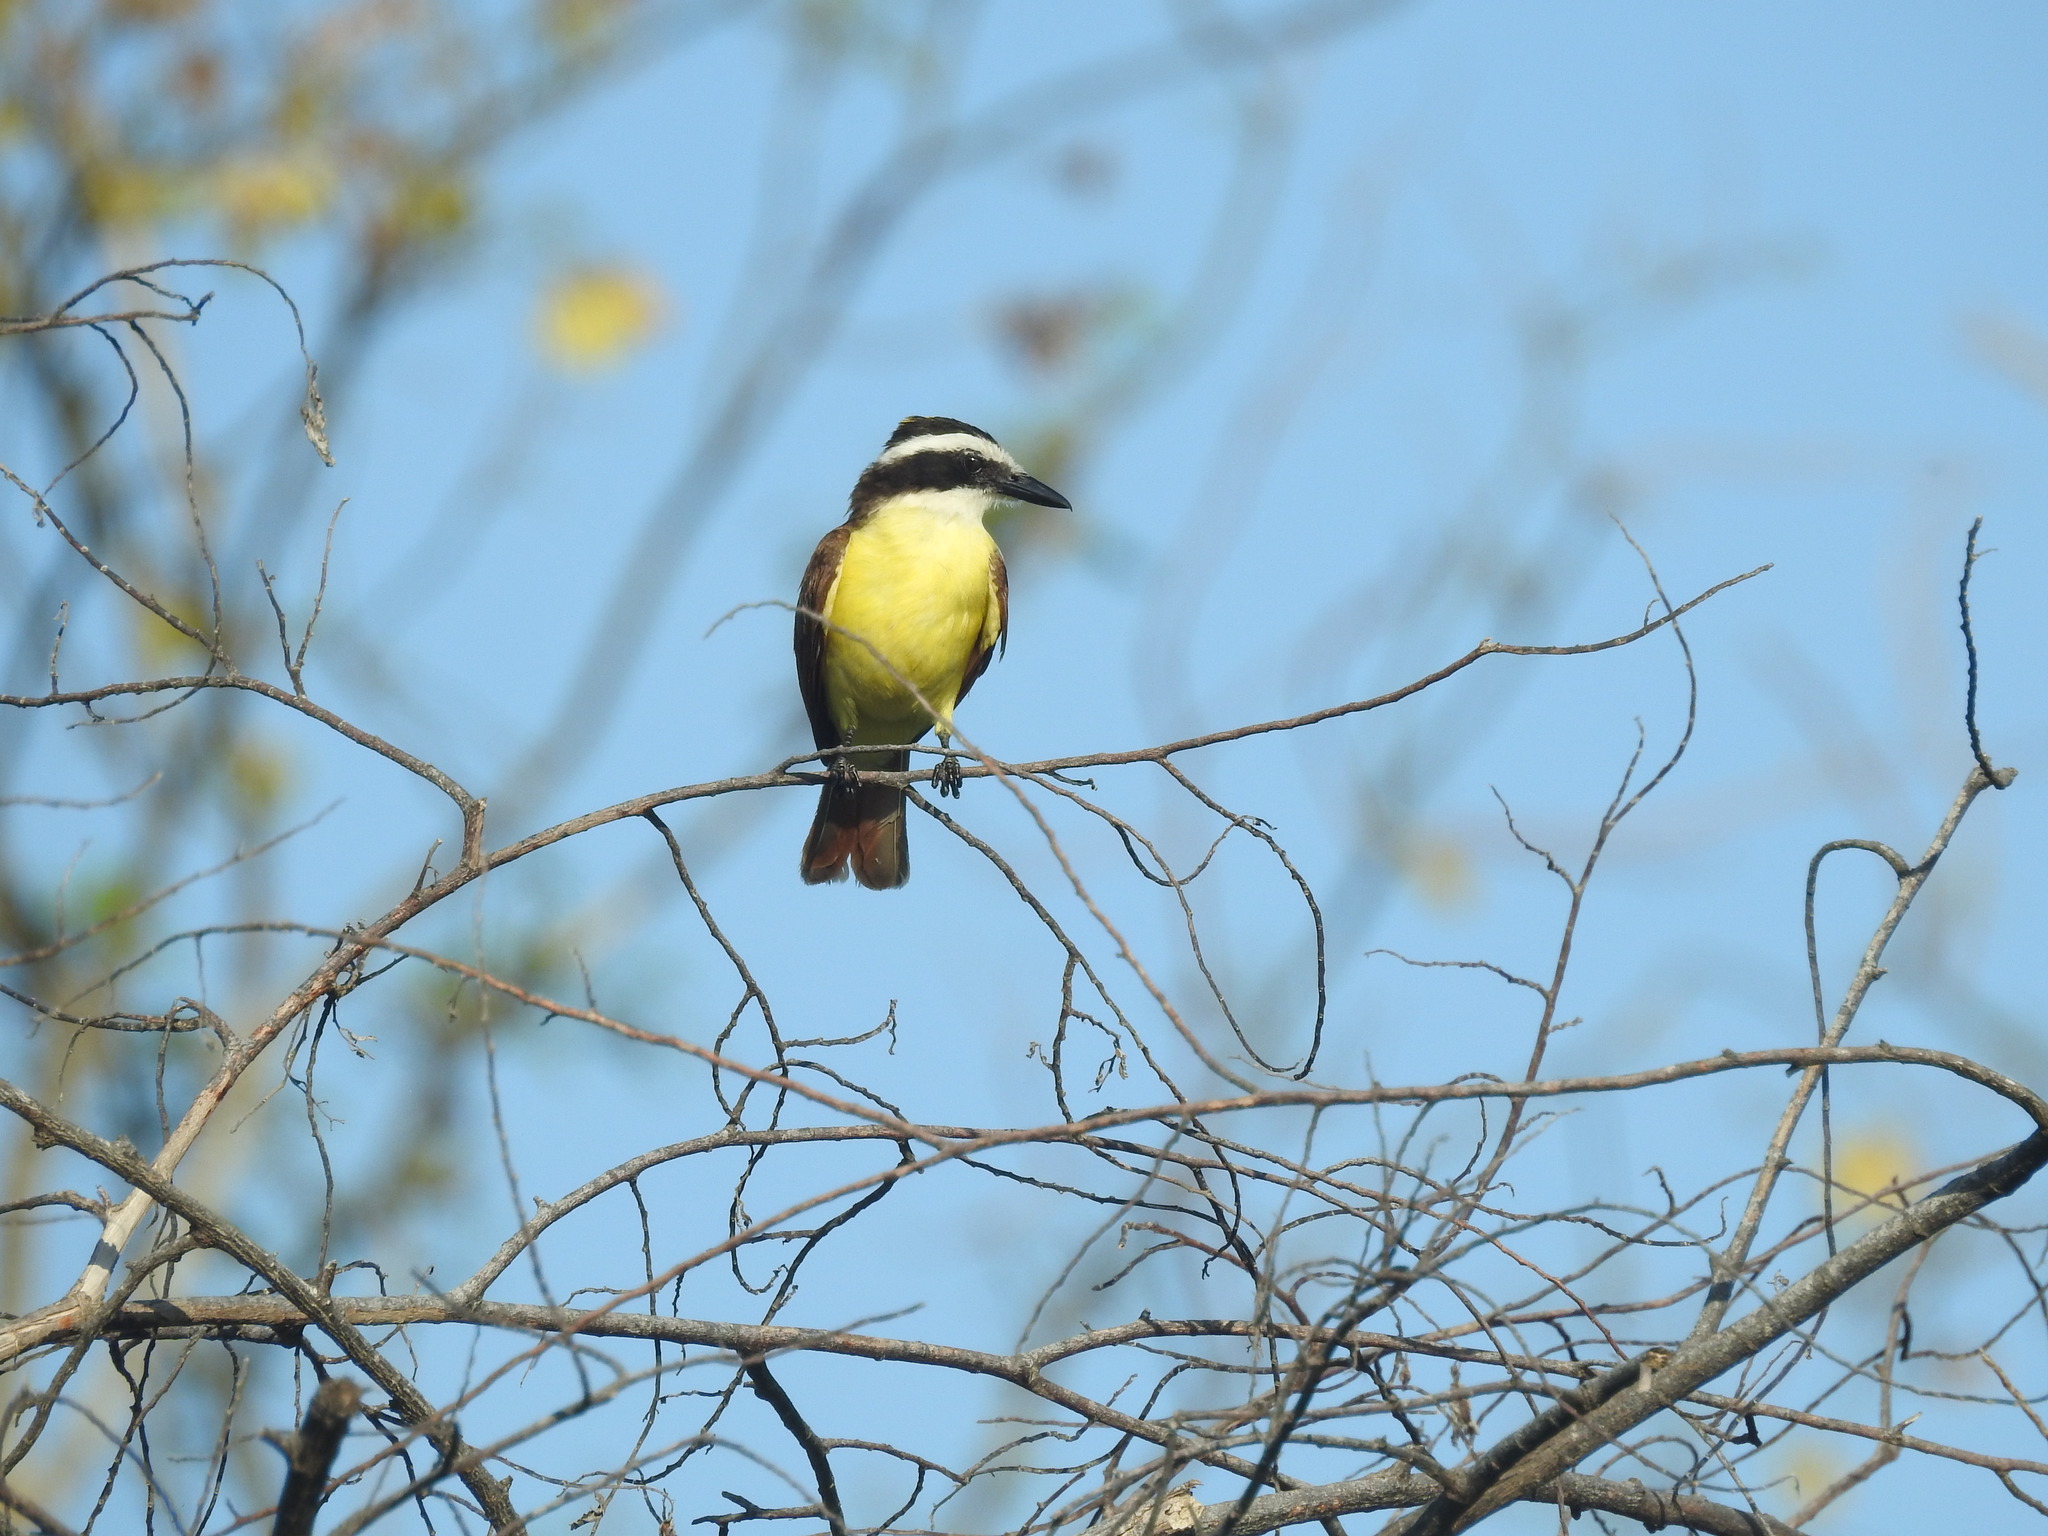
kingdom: Animalia
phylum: Chordata
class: Aves
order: Passeriformes
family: Tyrannidae
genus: Pitangus
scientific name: Pitangus sulphuratus
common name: Great kiskadee
